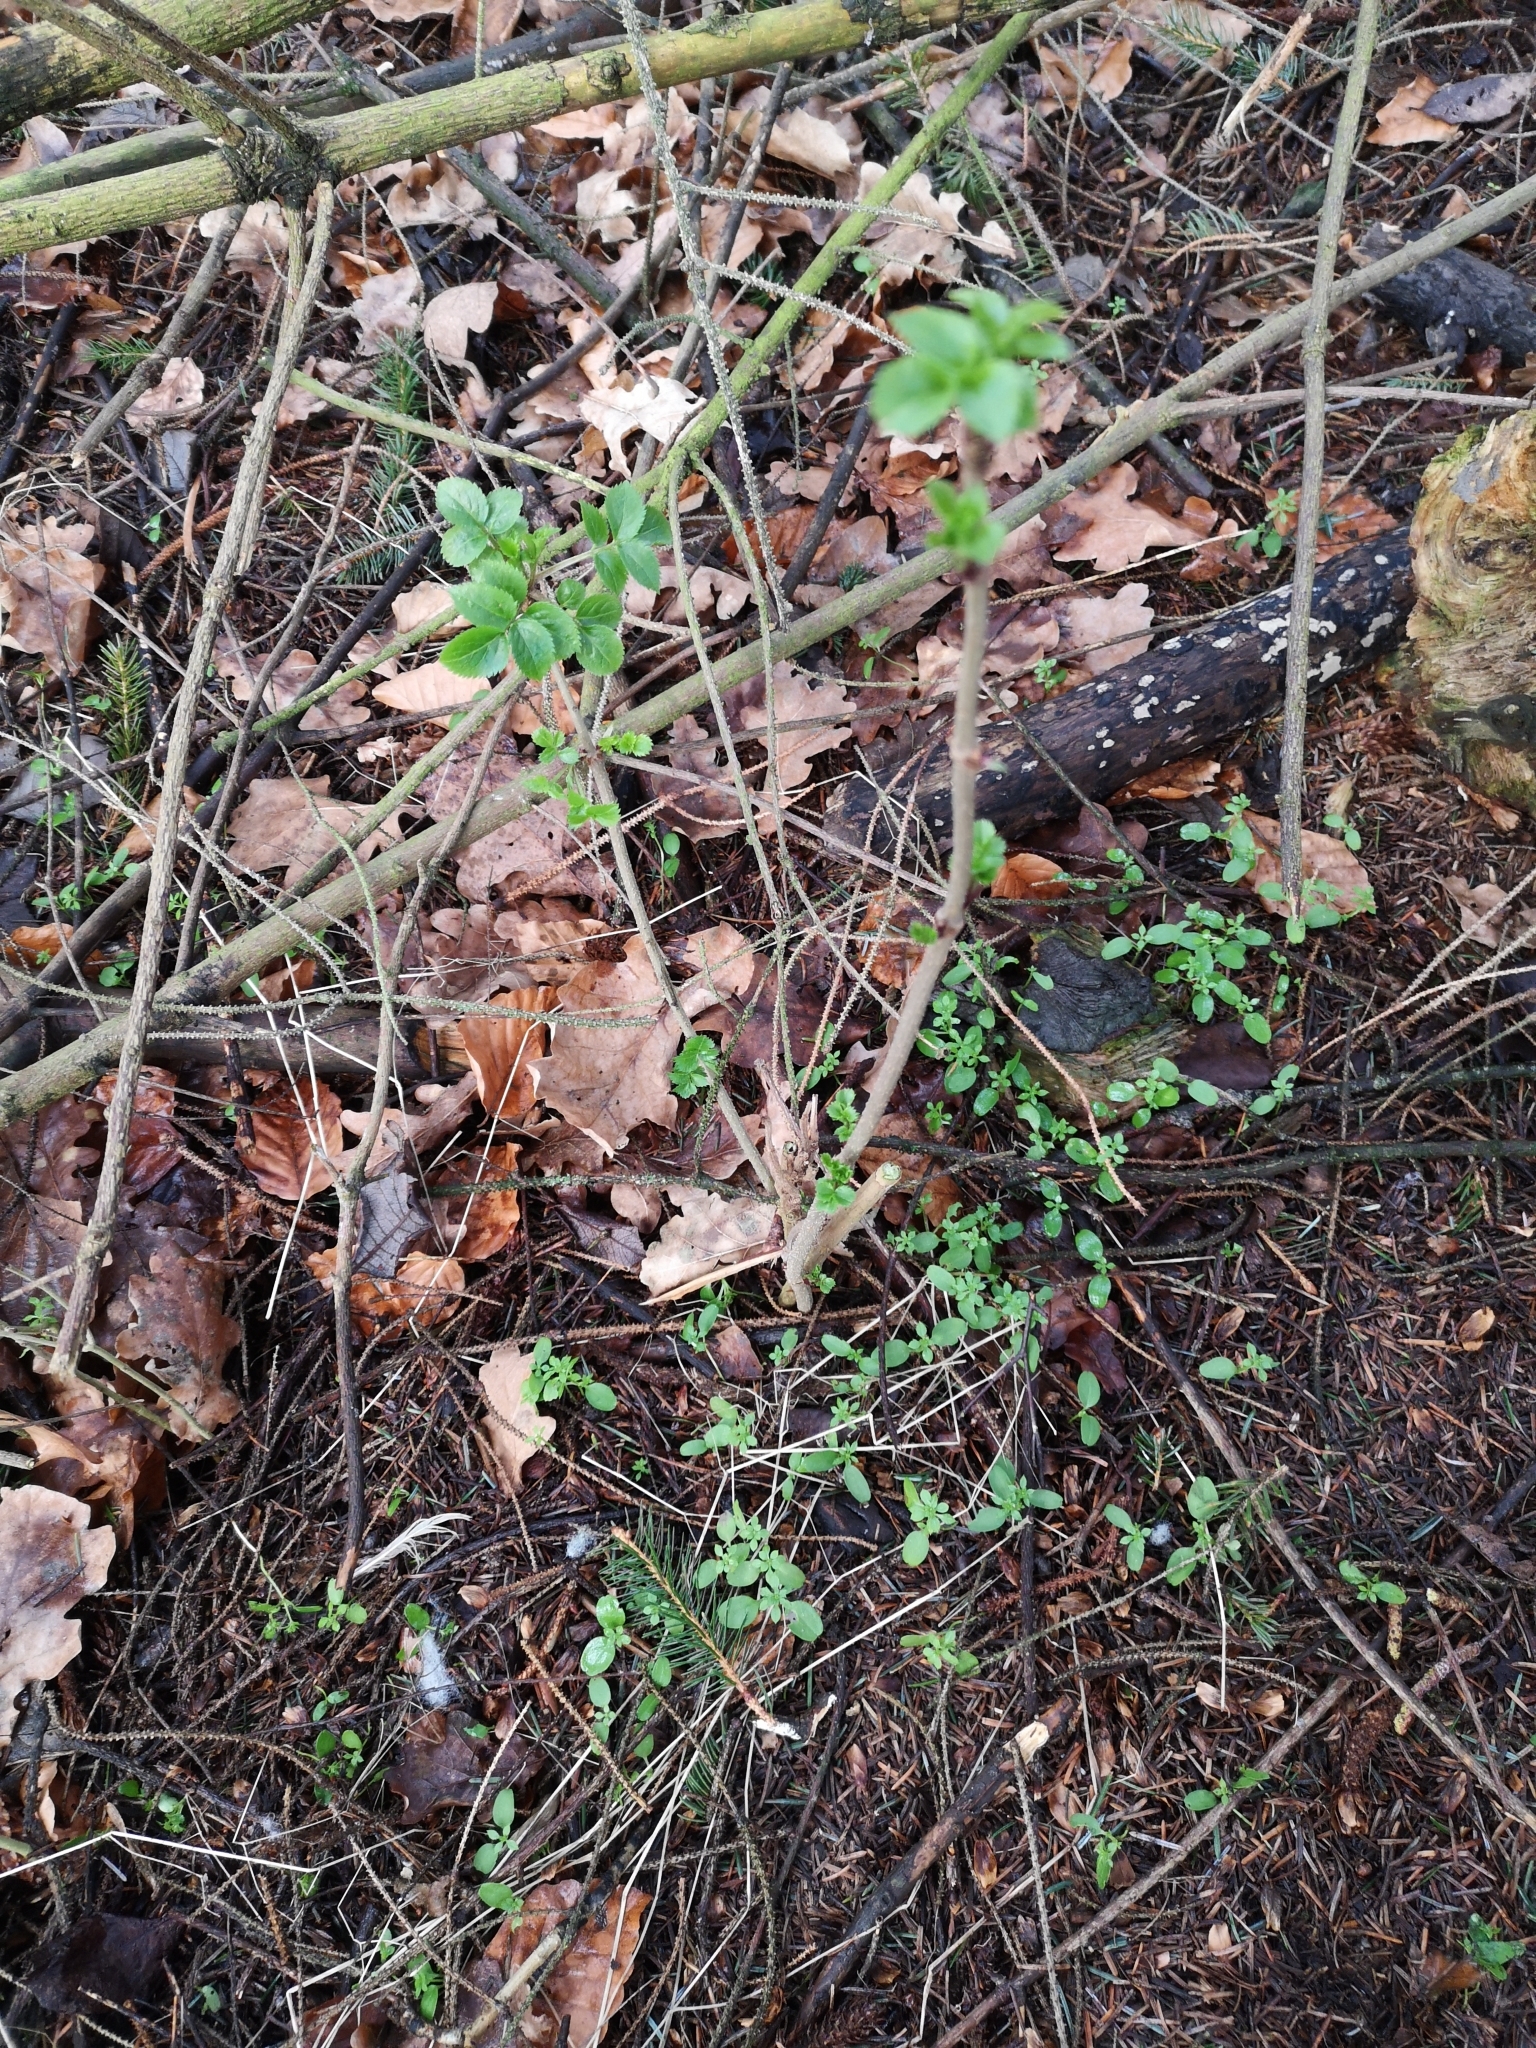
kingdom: Plantae
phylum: Tracheophyta
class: Magnoliopsida
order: Dipsacales
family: Viburnaceae
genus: Sambucus
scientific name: Sambucus nigra
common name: Elder
